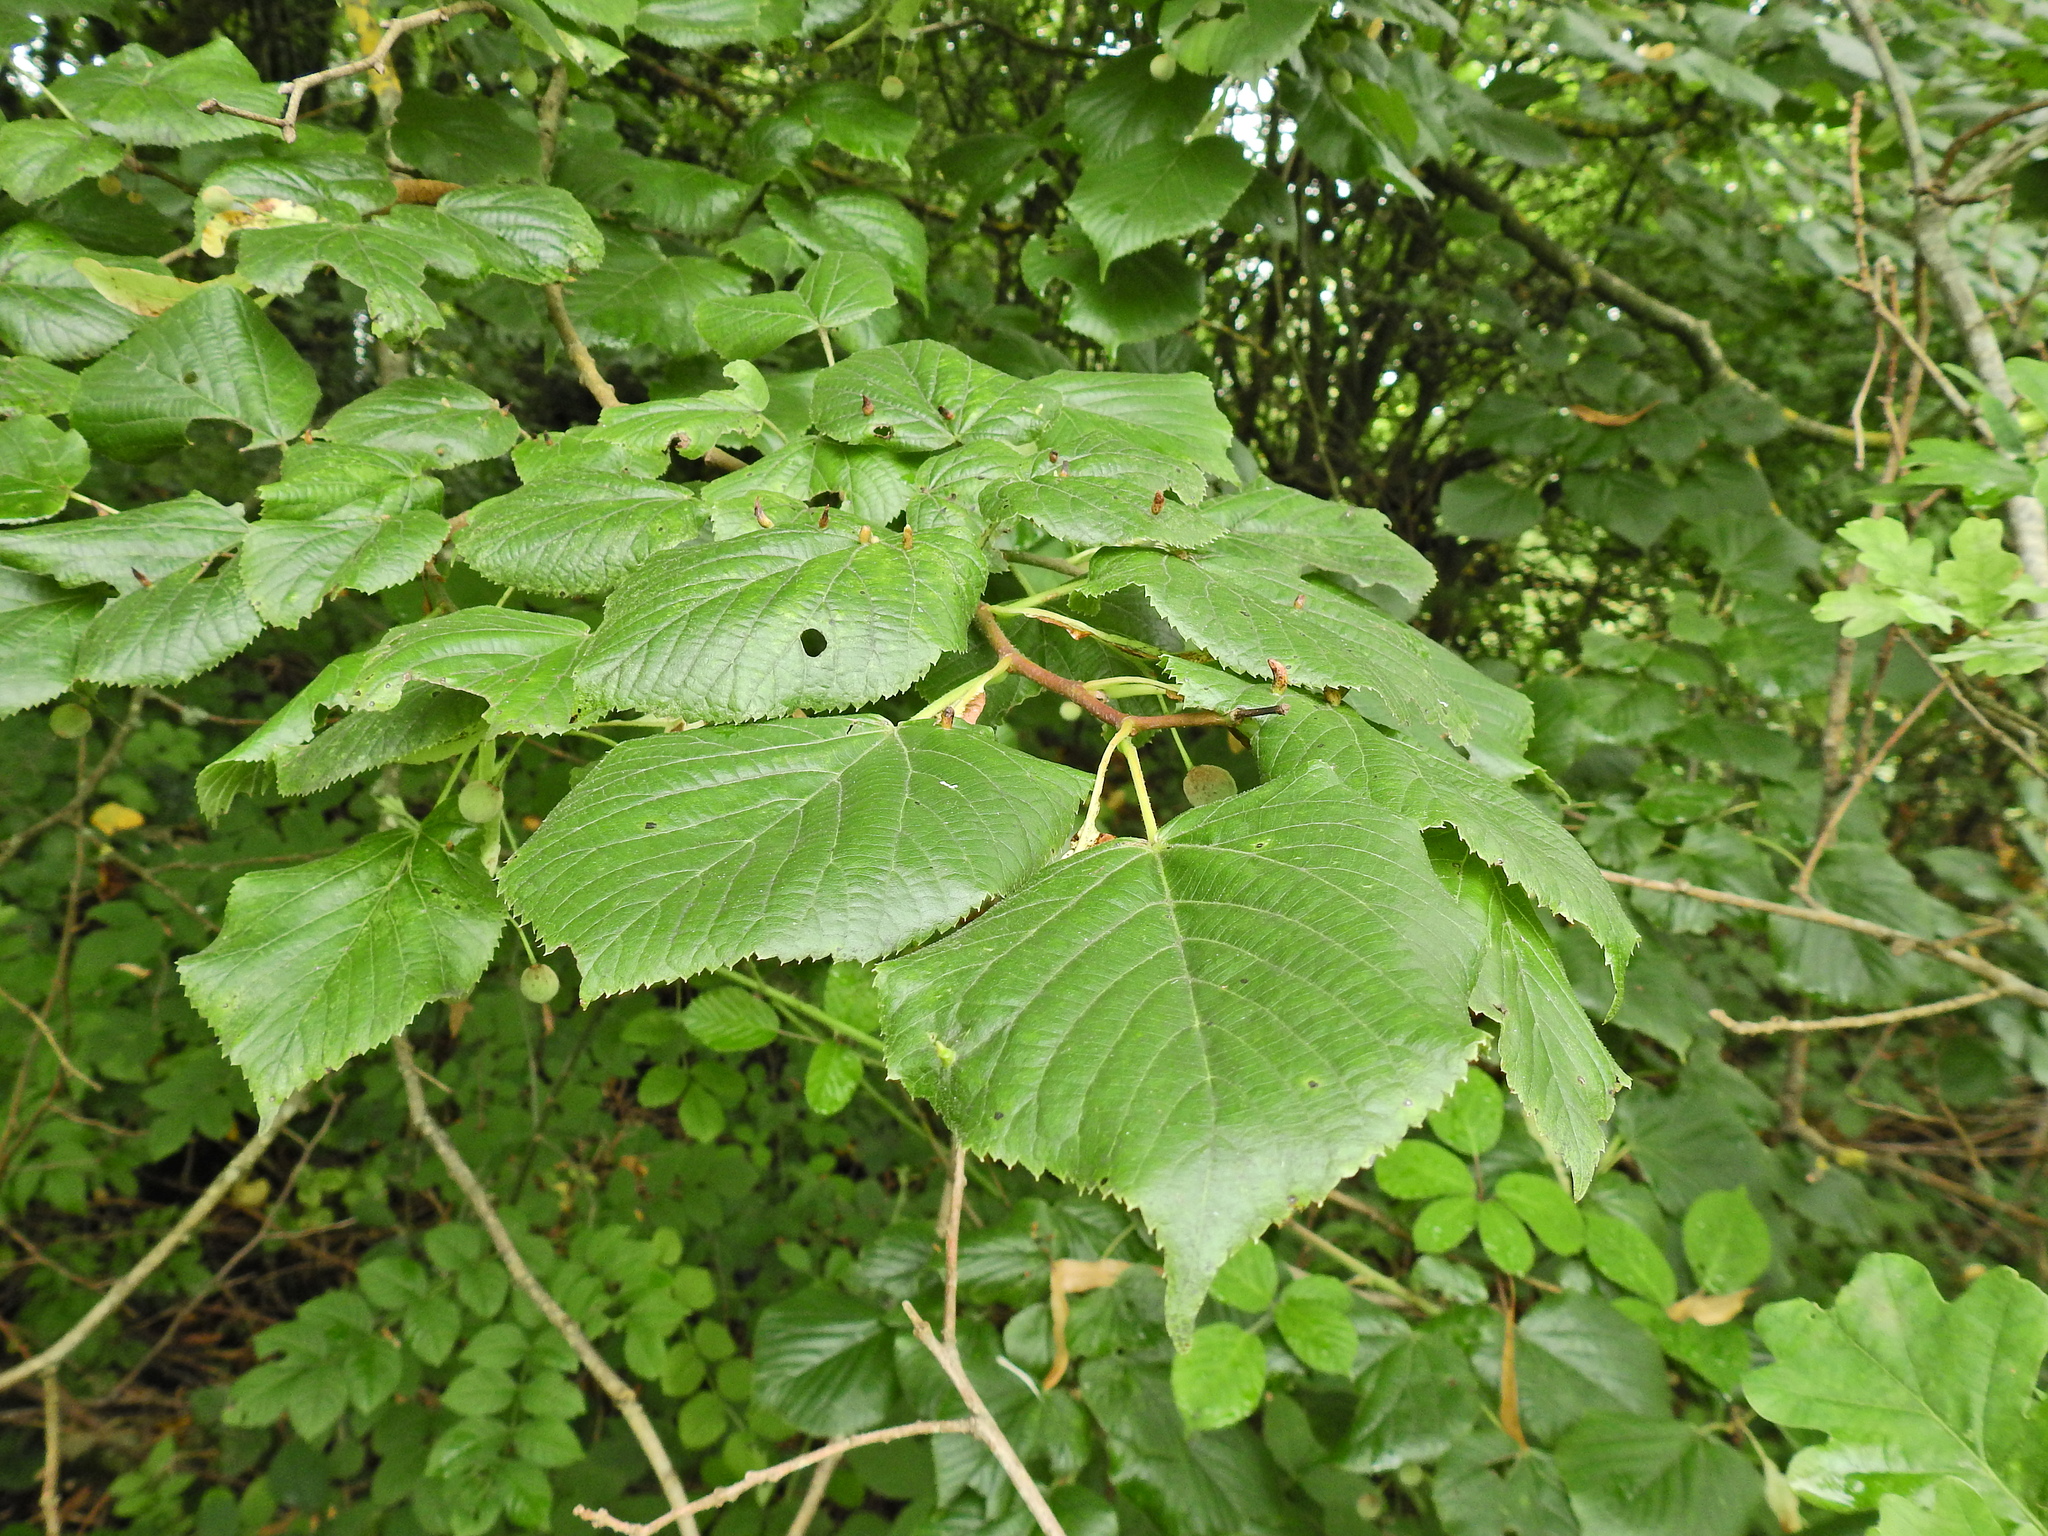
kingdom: Plantae
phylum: Tracheophyta
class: Magnoliopsida
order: Malvales
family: Malvaceae
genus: Tilia
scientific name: Tilia europaea
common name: European linden
